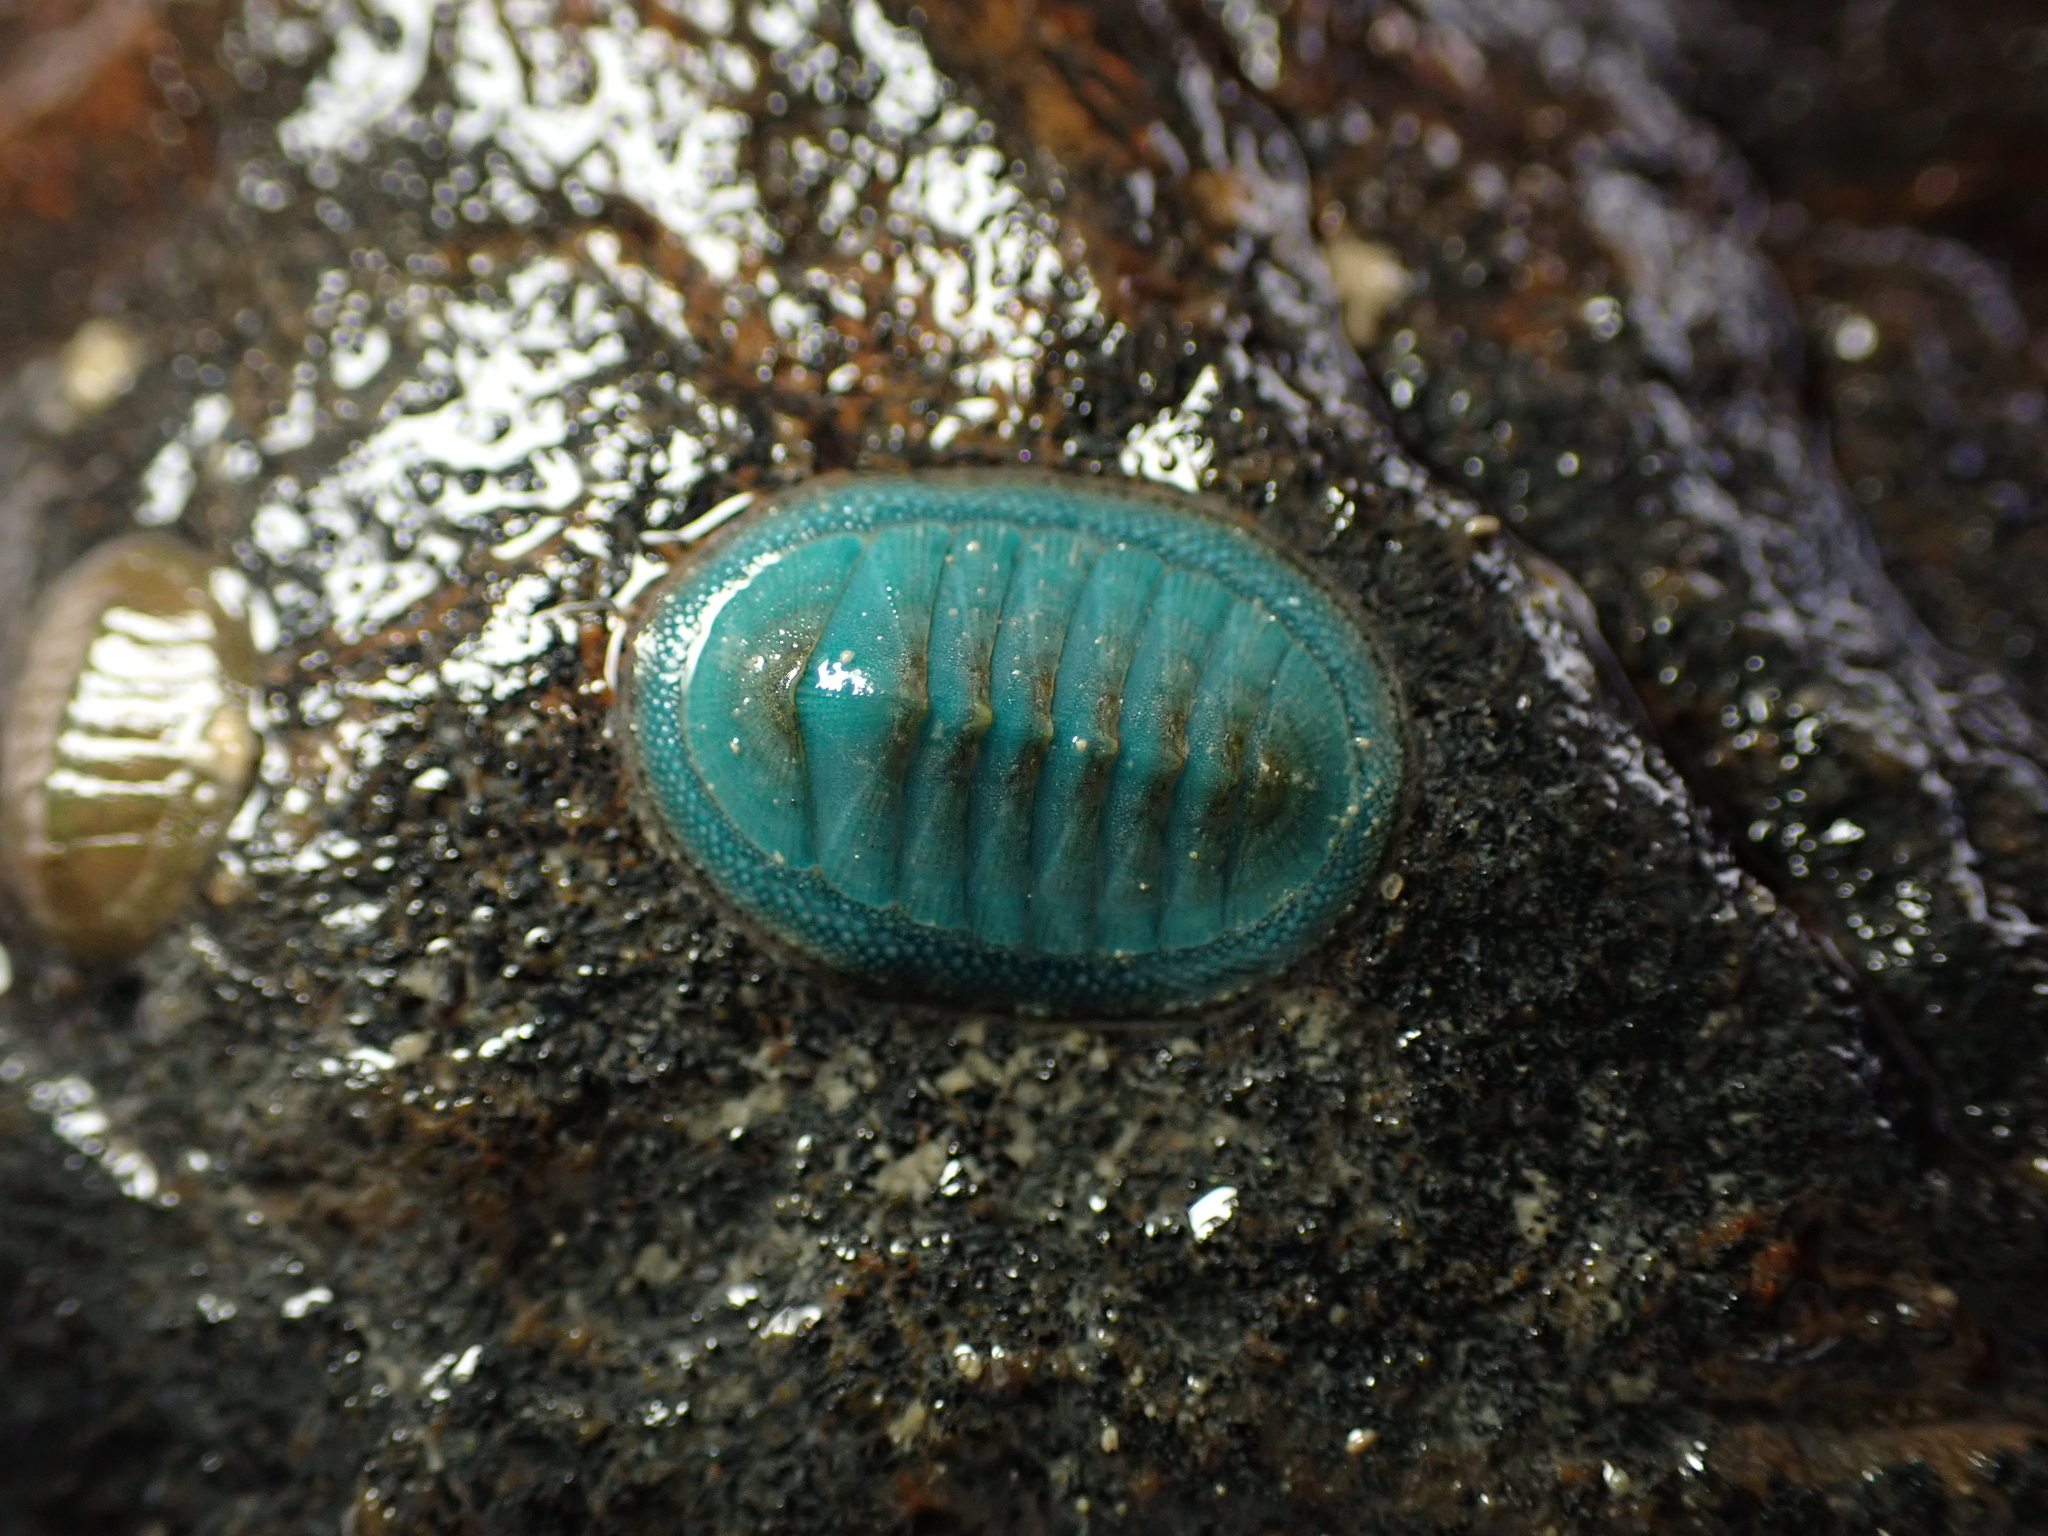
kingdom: Animalia
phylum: Mollusca
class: Polyplacophora
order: Chitonida
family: Chitonidae
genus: Chiton
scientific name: Chiton glaucus
